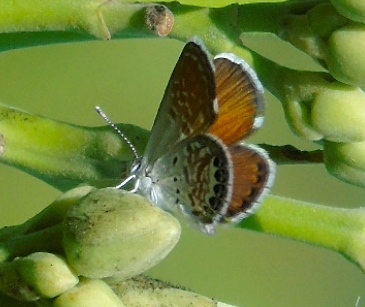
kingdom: Animalia
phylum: Arthropoda
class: Insecta
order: Lepidoptera
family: Lycaenidae
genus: Brephidium
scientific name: Brephidium exilis
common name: Pygmy blue
